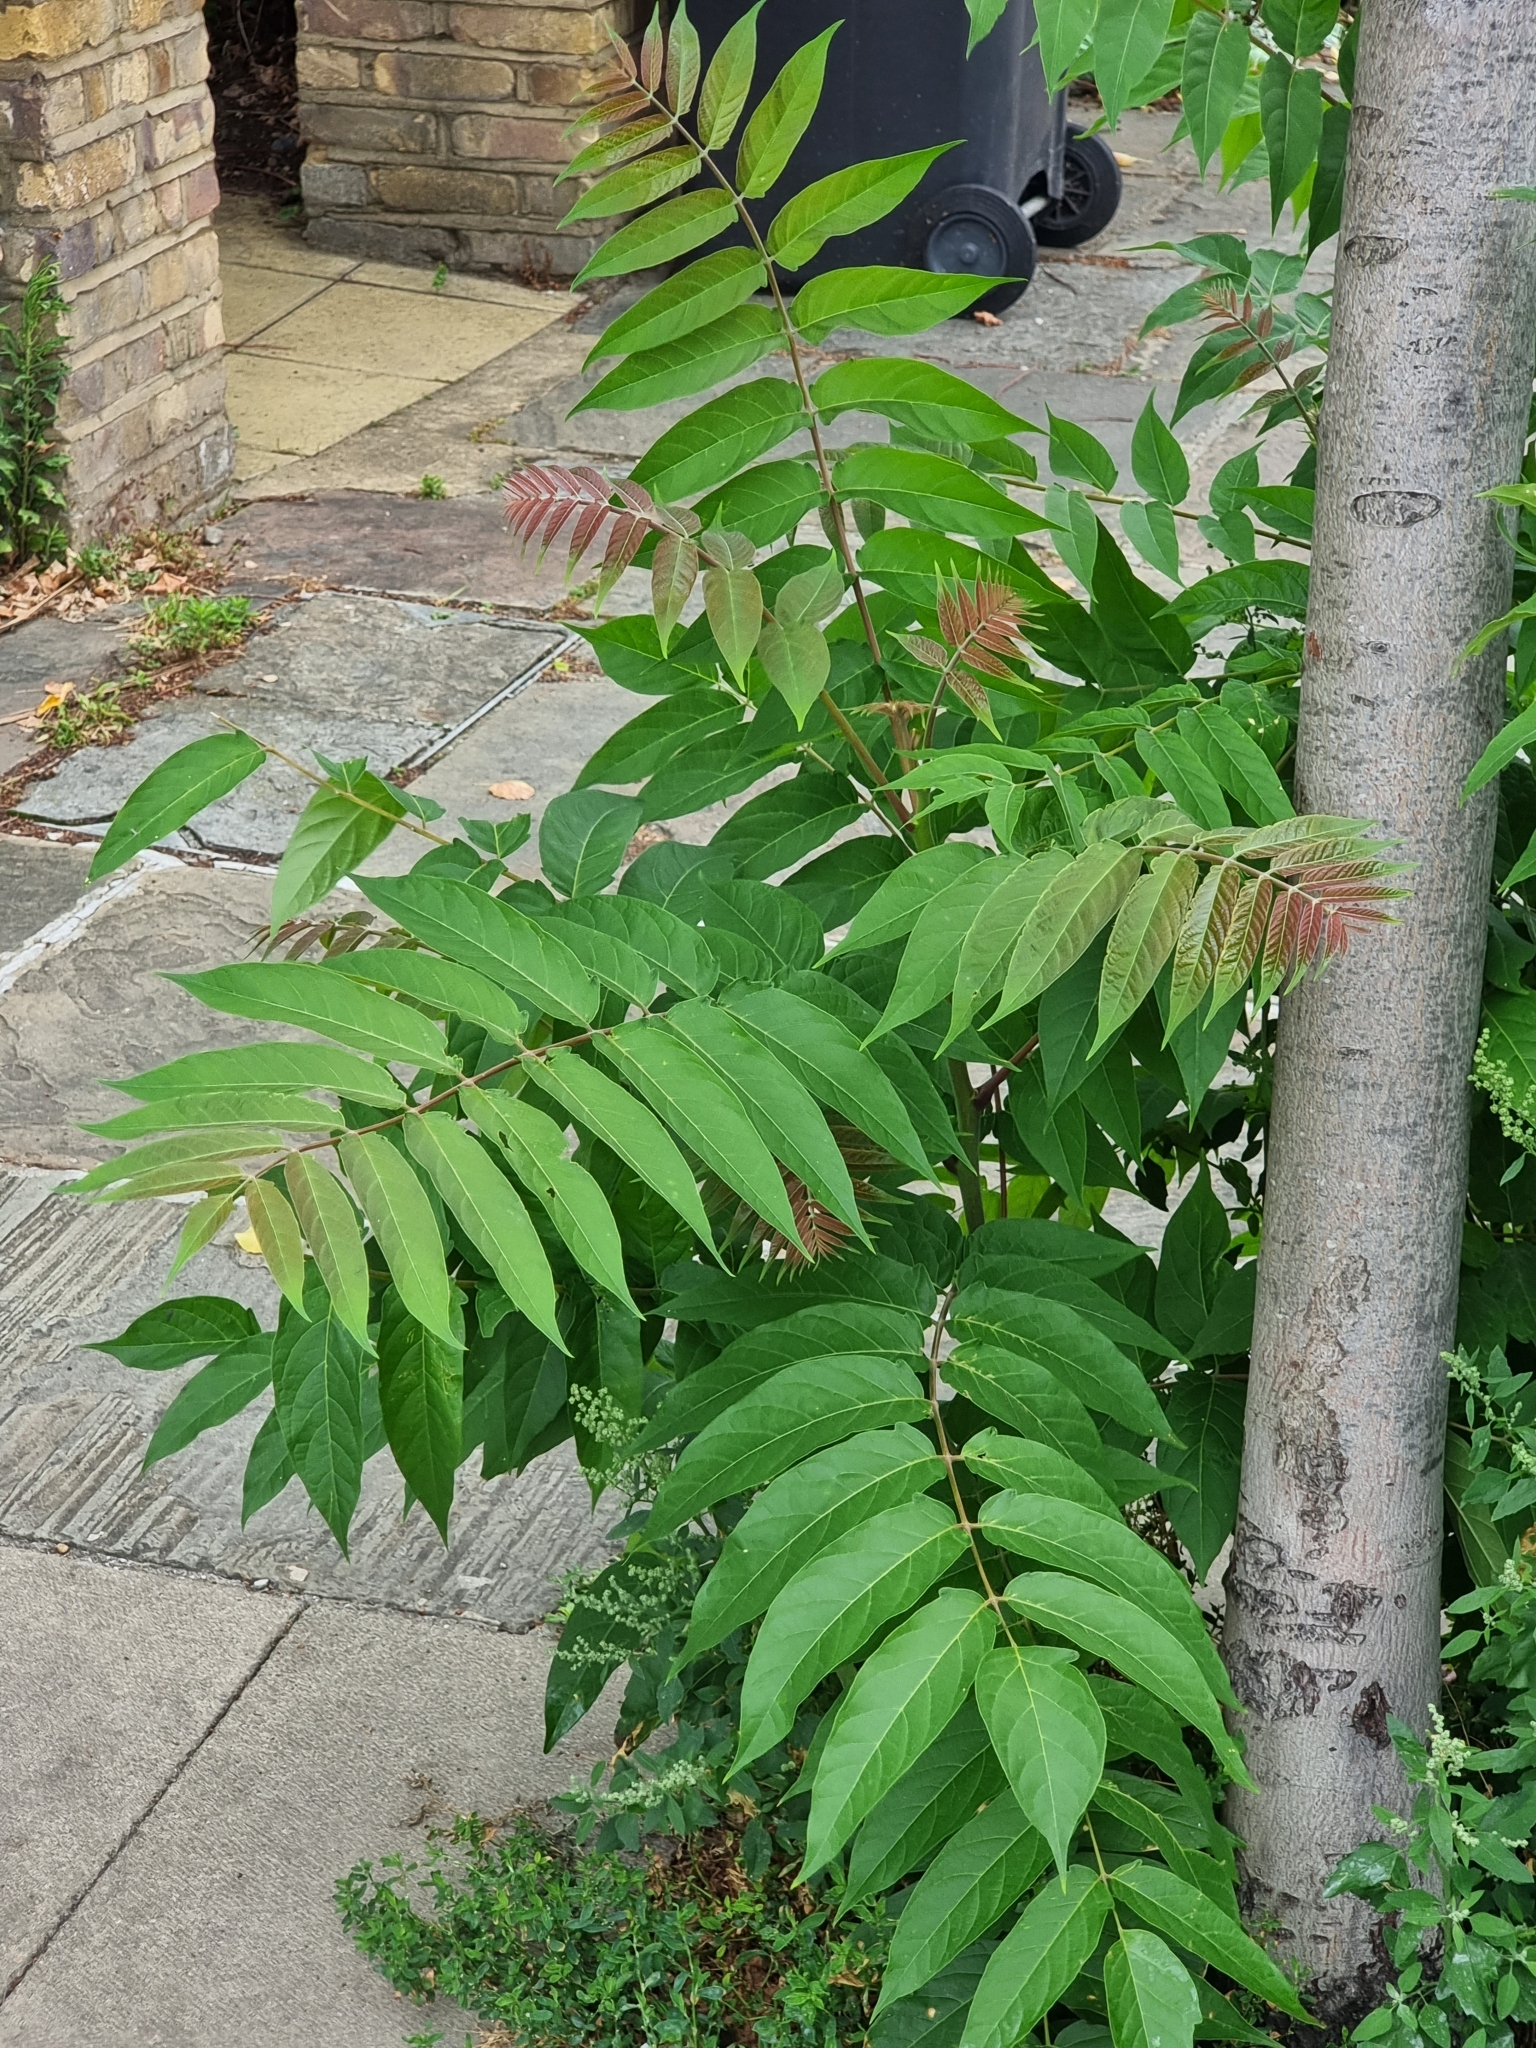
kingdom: Plantae
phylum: Tracheophyta
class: Magnoliopsida
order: Sapindales
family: Simaroubaceae
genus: Ailanthus
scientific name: Ailanthus altissima
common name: Tree-of-heaven
